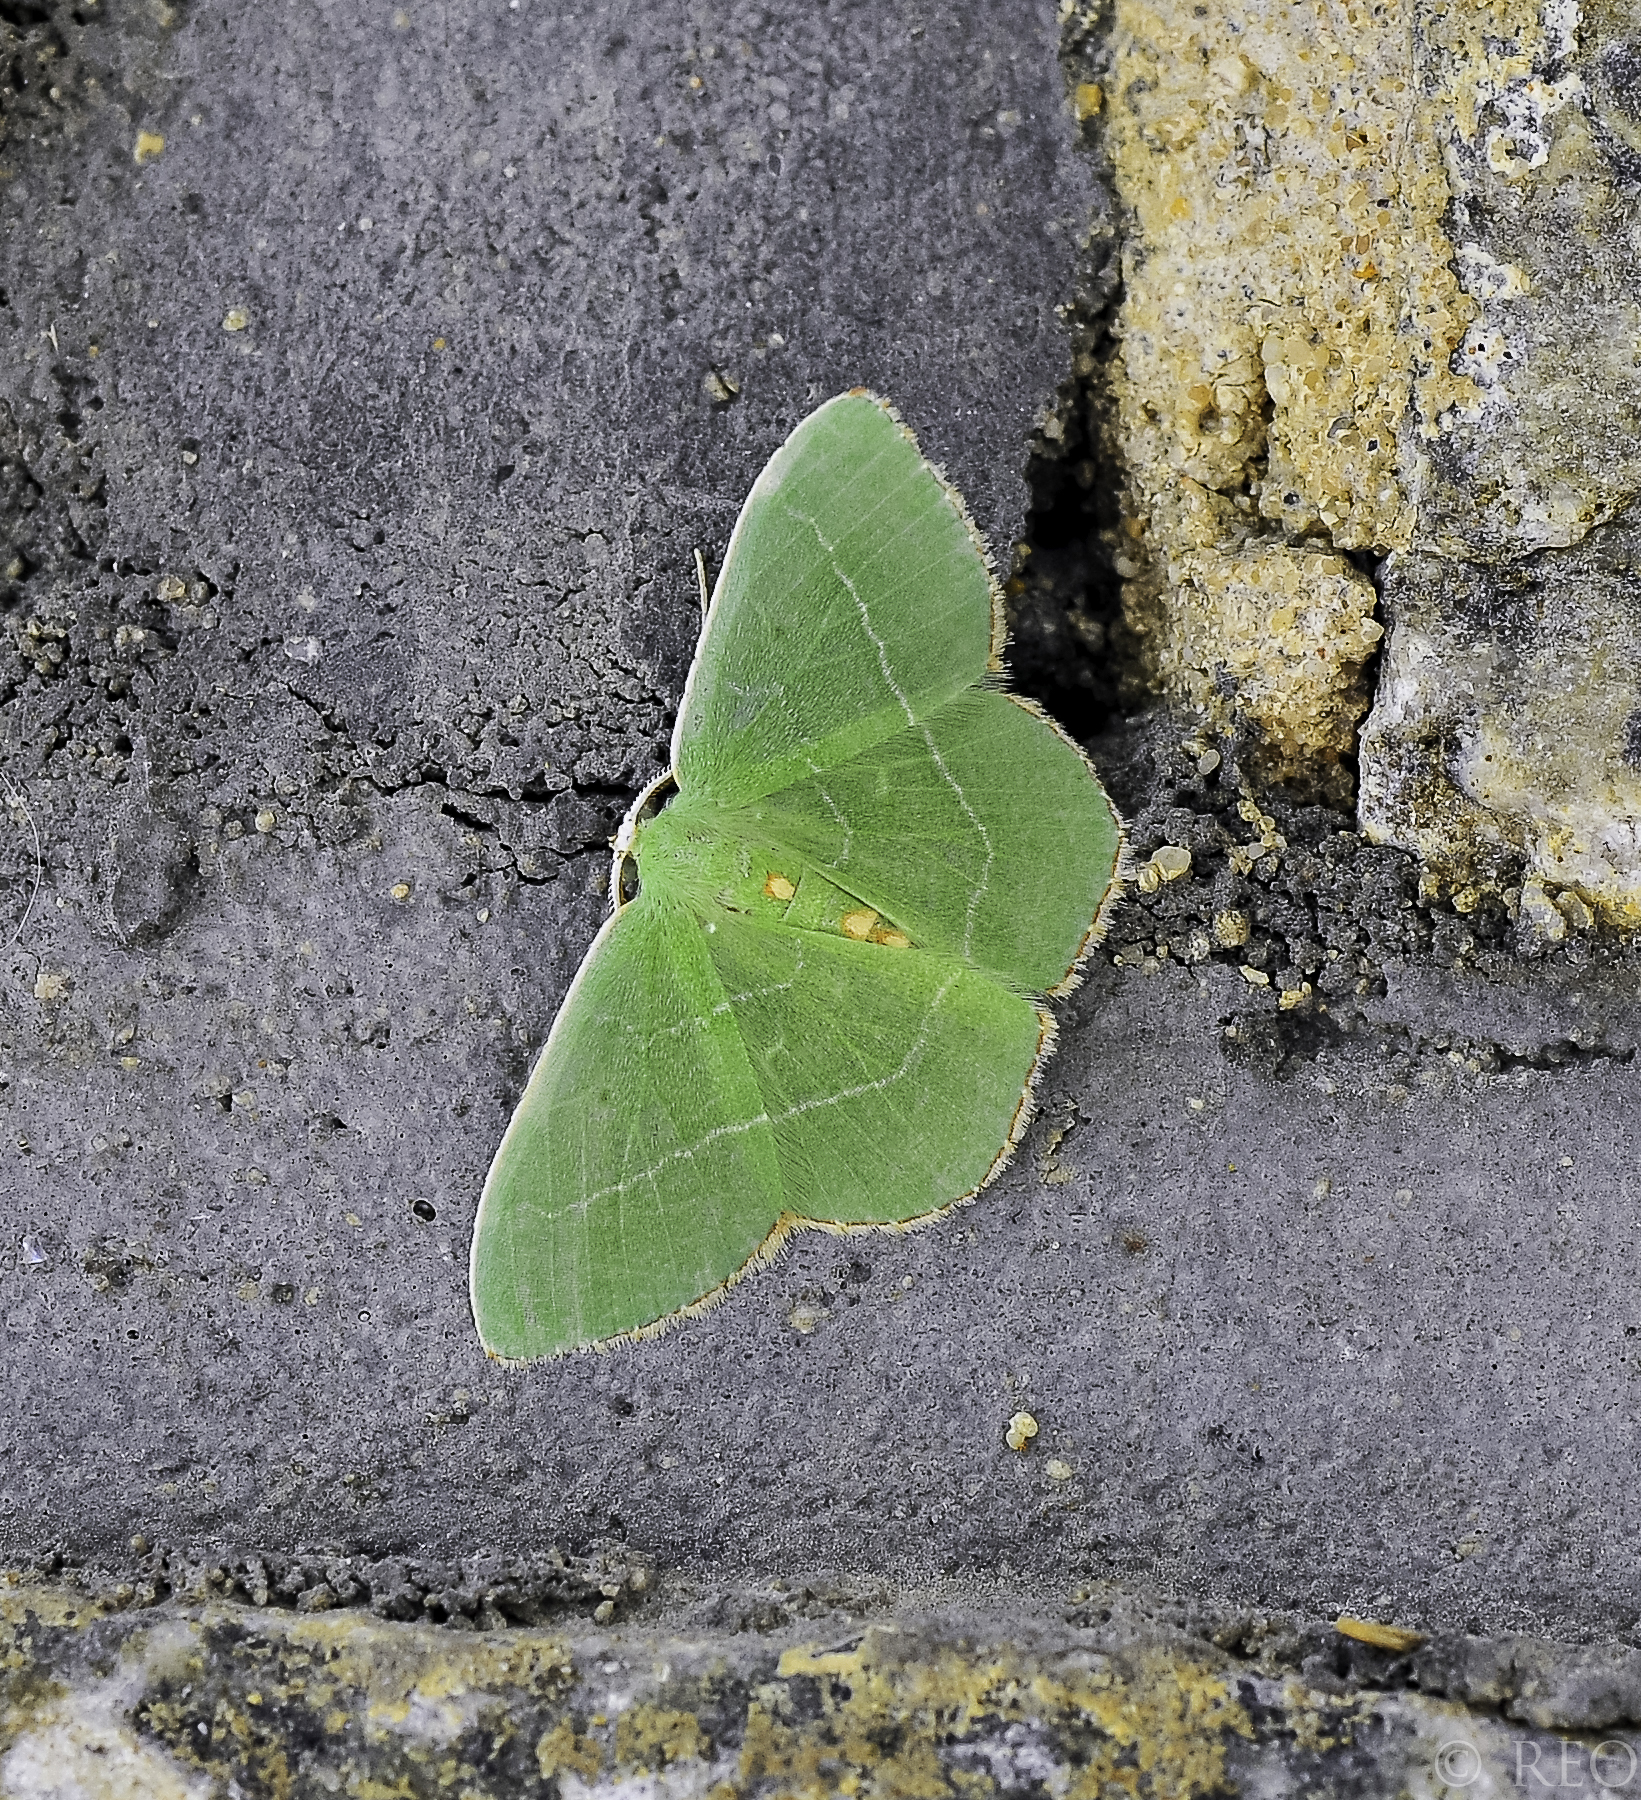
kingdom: Animalia
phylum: Arthropoda
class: Insecta
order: Lepidoptera
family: Geometridae
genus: Nemoria
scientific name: Nemoria bistriaria
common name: Red-fringed emerald
